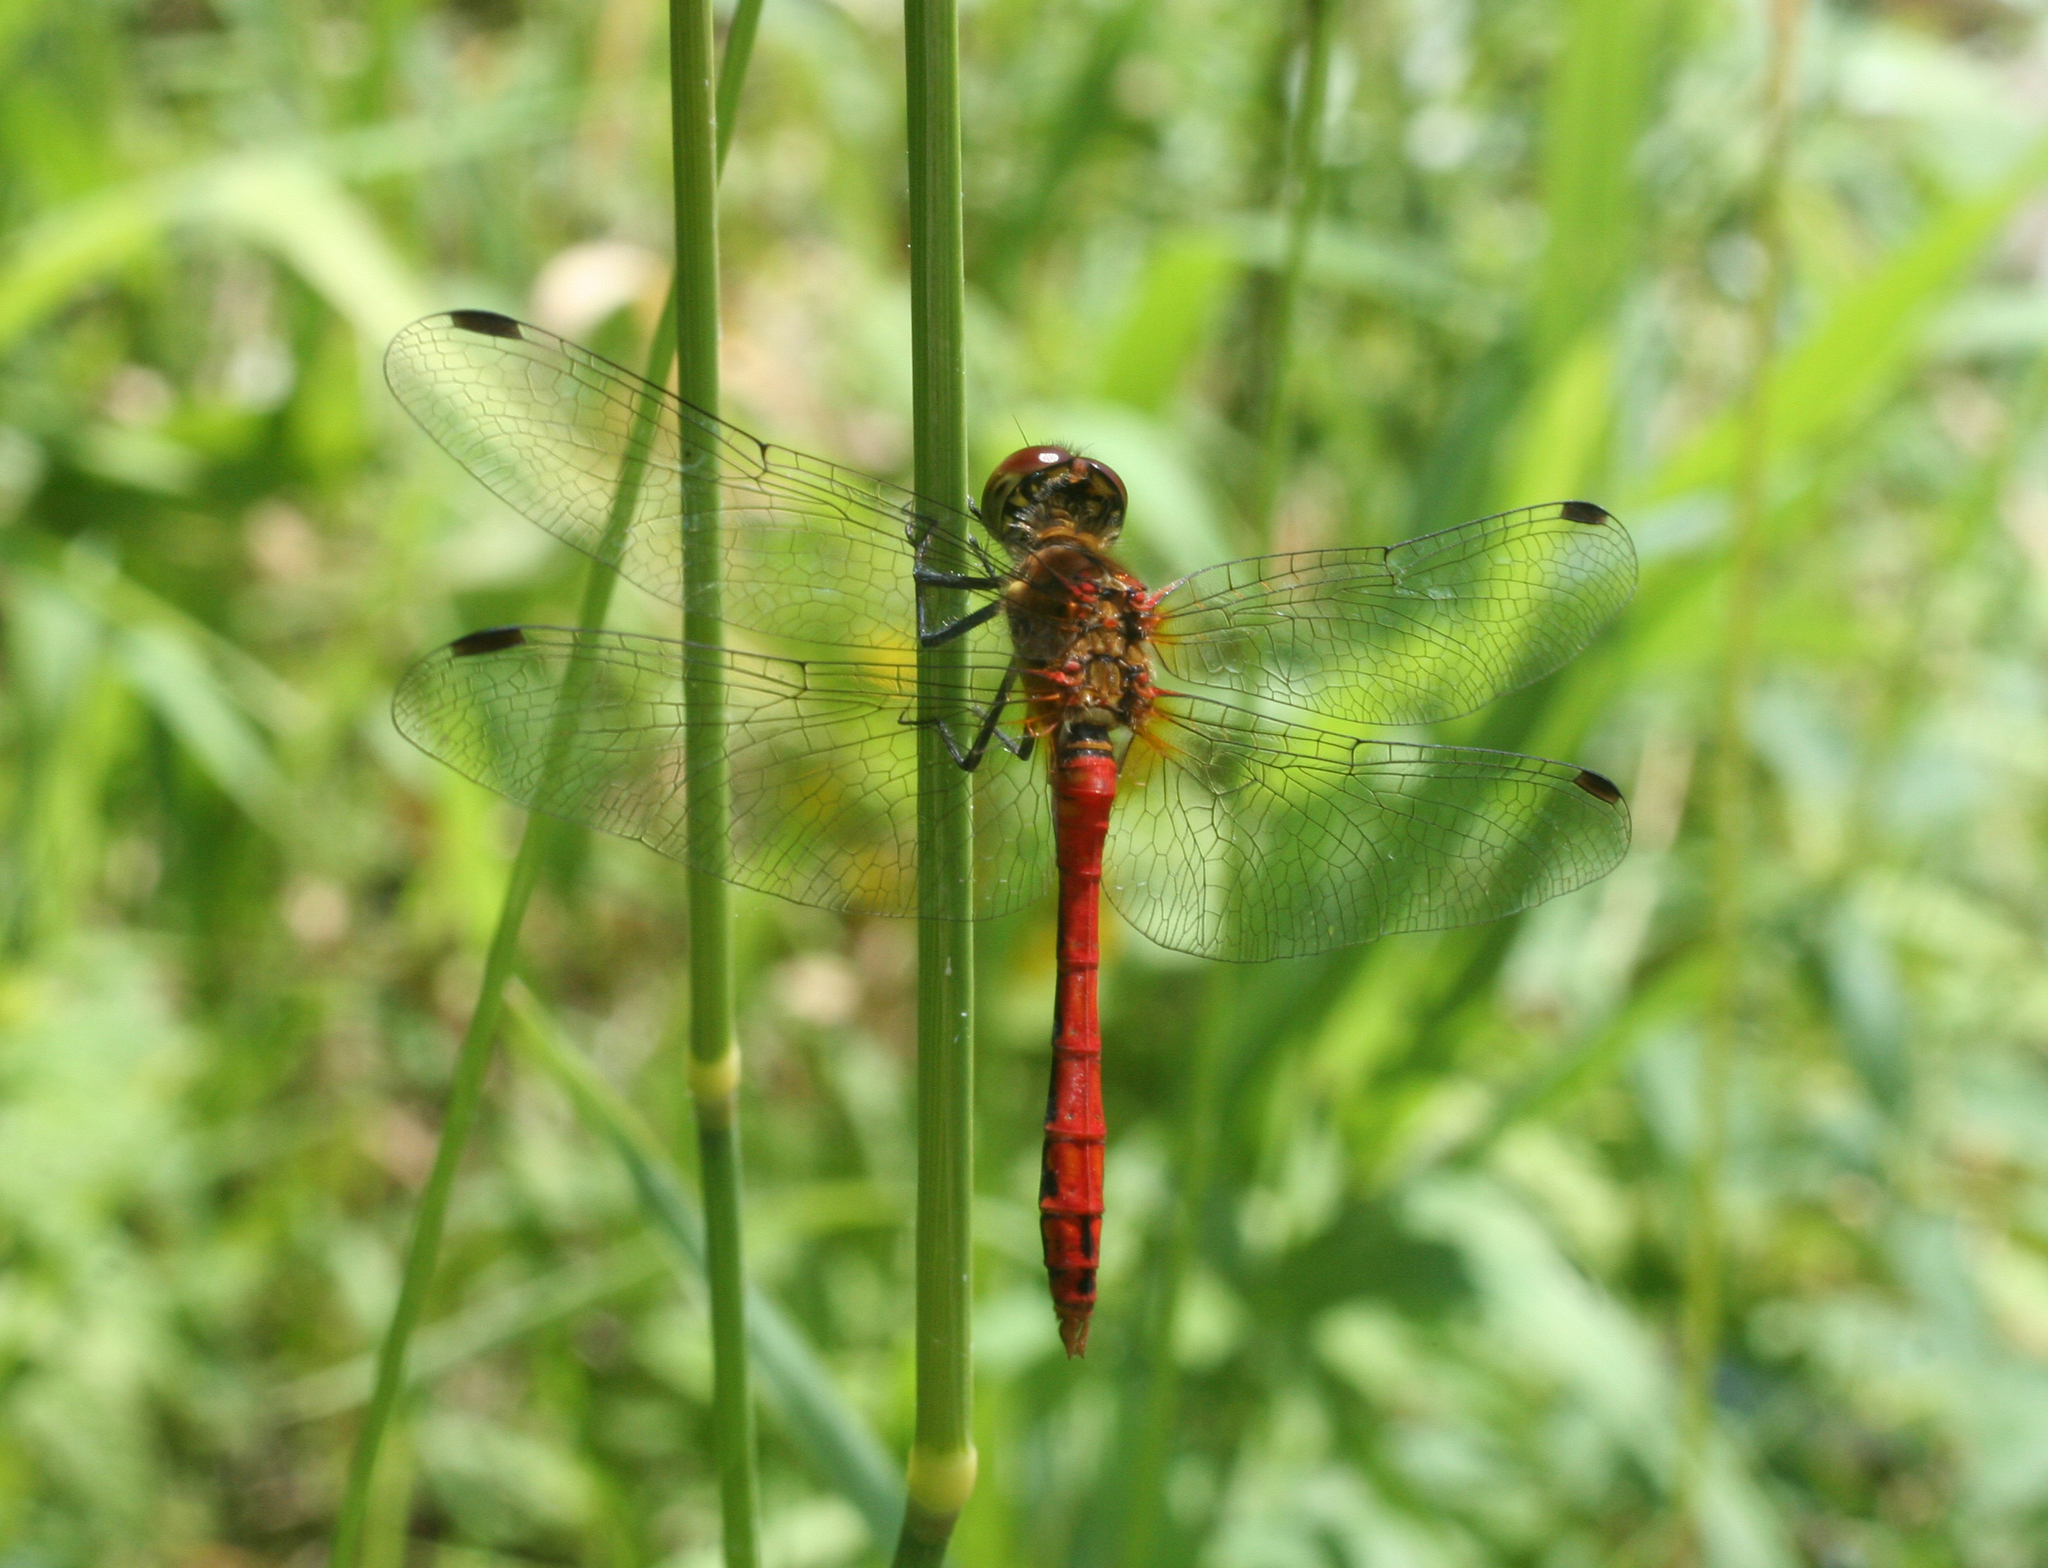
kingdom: Animalia
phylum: Arthropoda
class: Insecta
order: Odonata
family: Libellulidae
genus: Sympetrum
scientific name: Sympetrum sanguineum
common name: Ruddy darter
